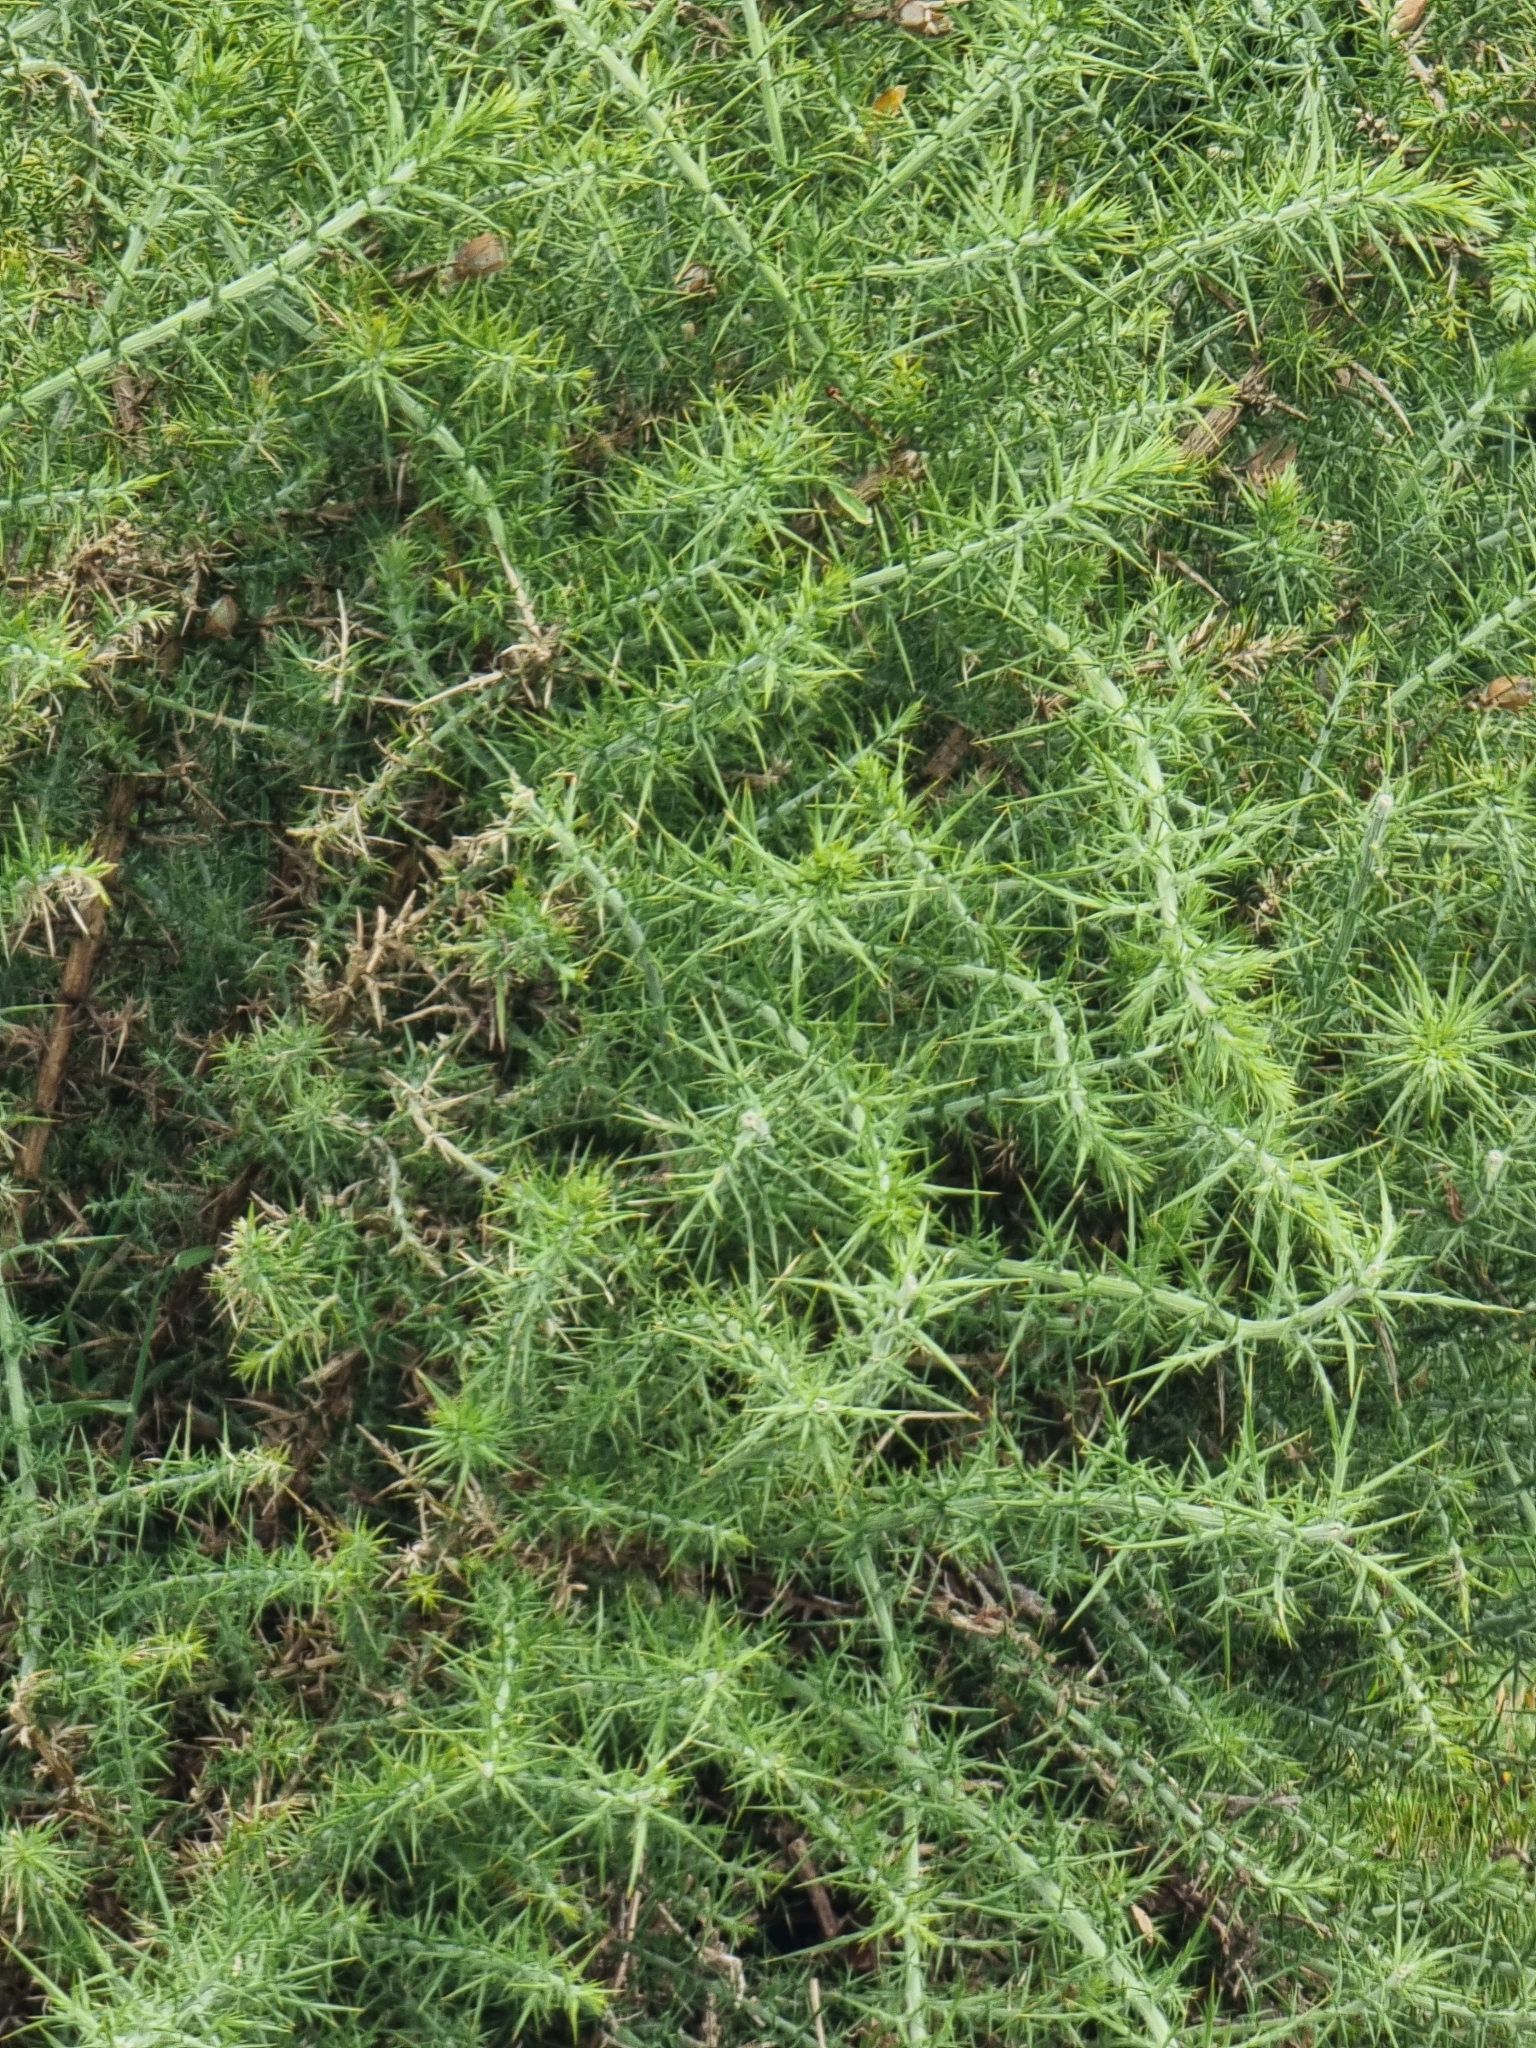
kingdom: Plantae
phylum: Tracheophyta
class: Magnoliopsida
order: Fabales
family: Fabaceae
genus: Ulex
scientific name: Ulex europaeus
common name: Common gorse
